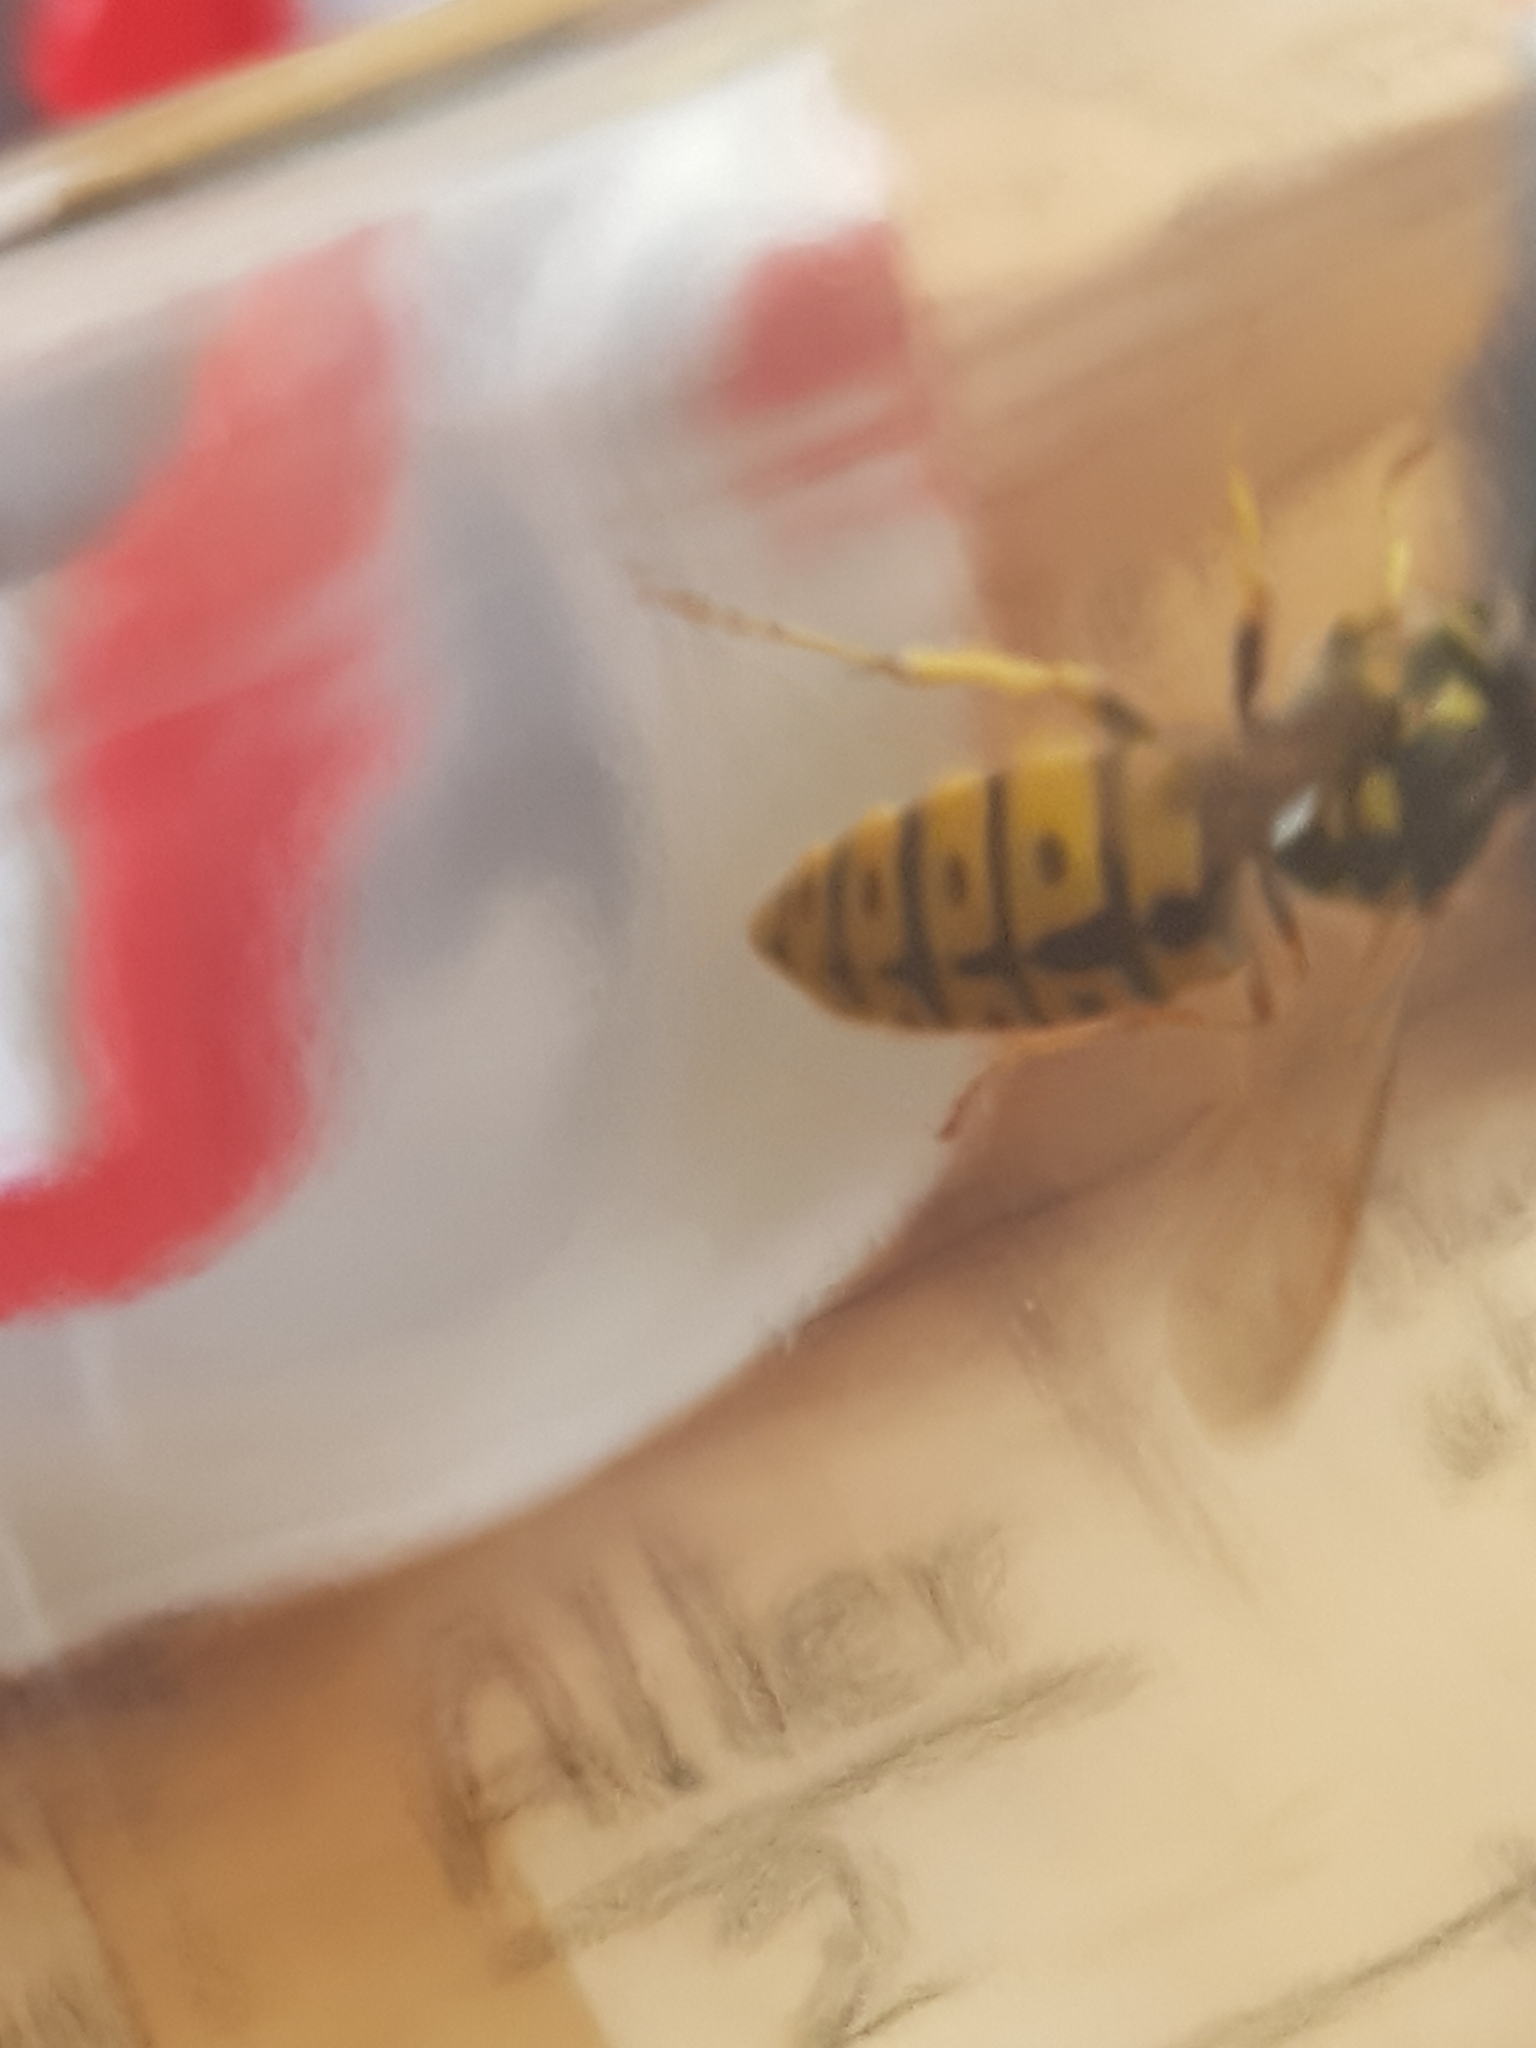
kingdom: Animalia
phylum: Arthropoda
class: Insecta
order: Hymenoptera
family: Vespidae
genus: Vespula
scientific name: Vespula germanica
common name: German wasp
